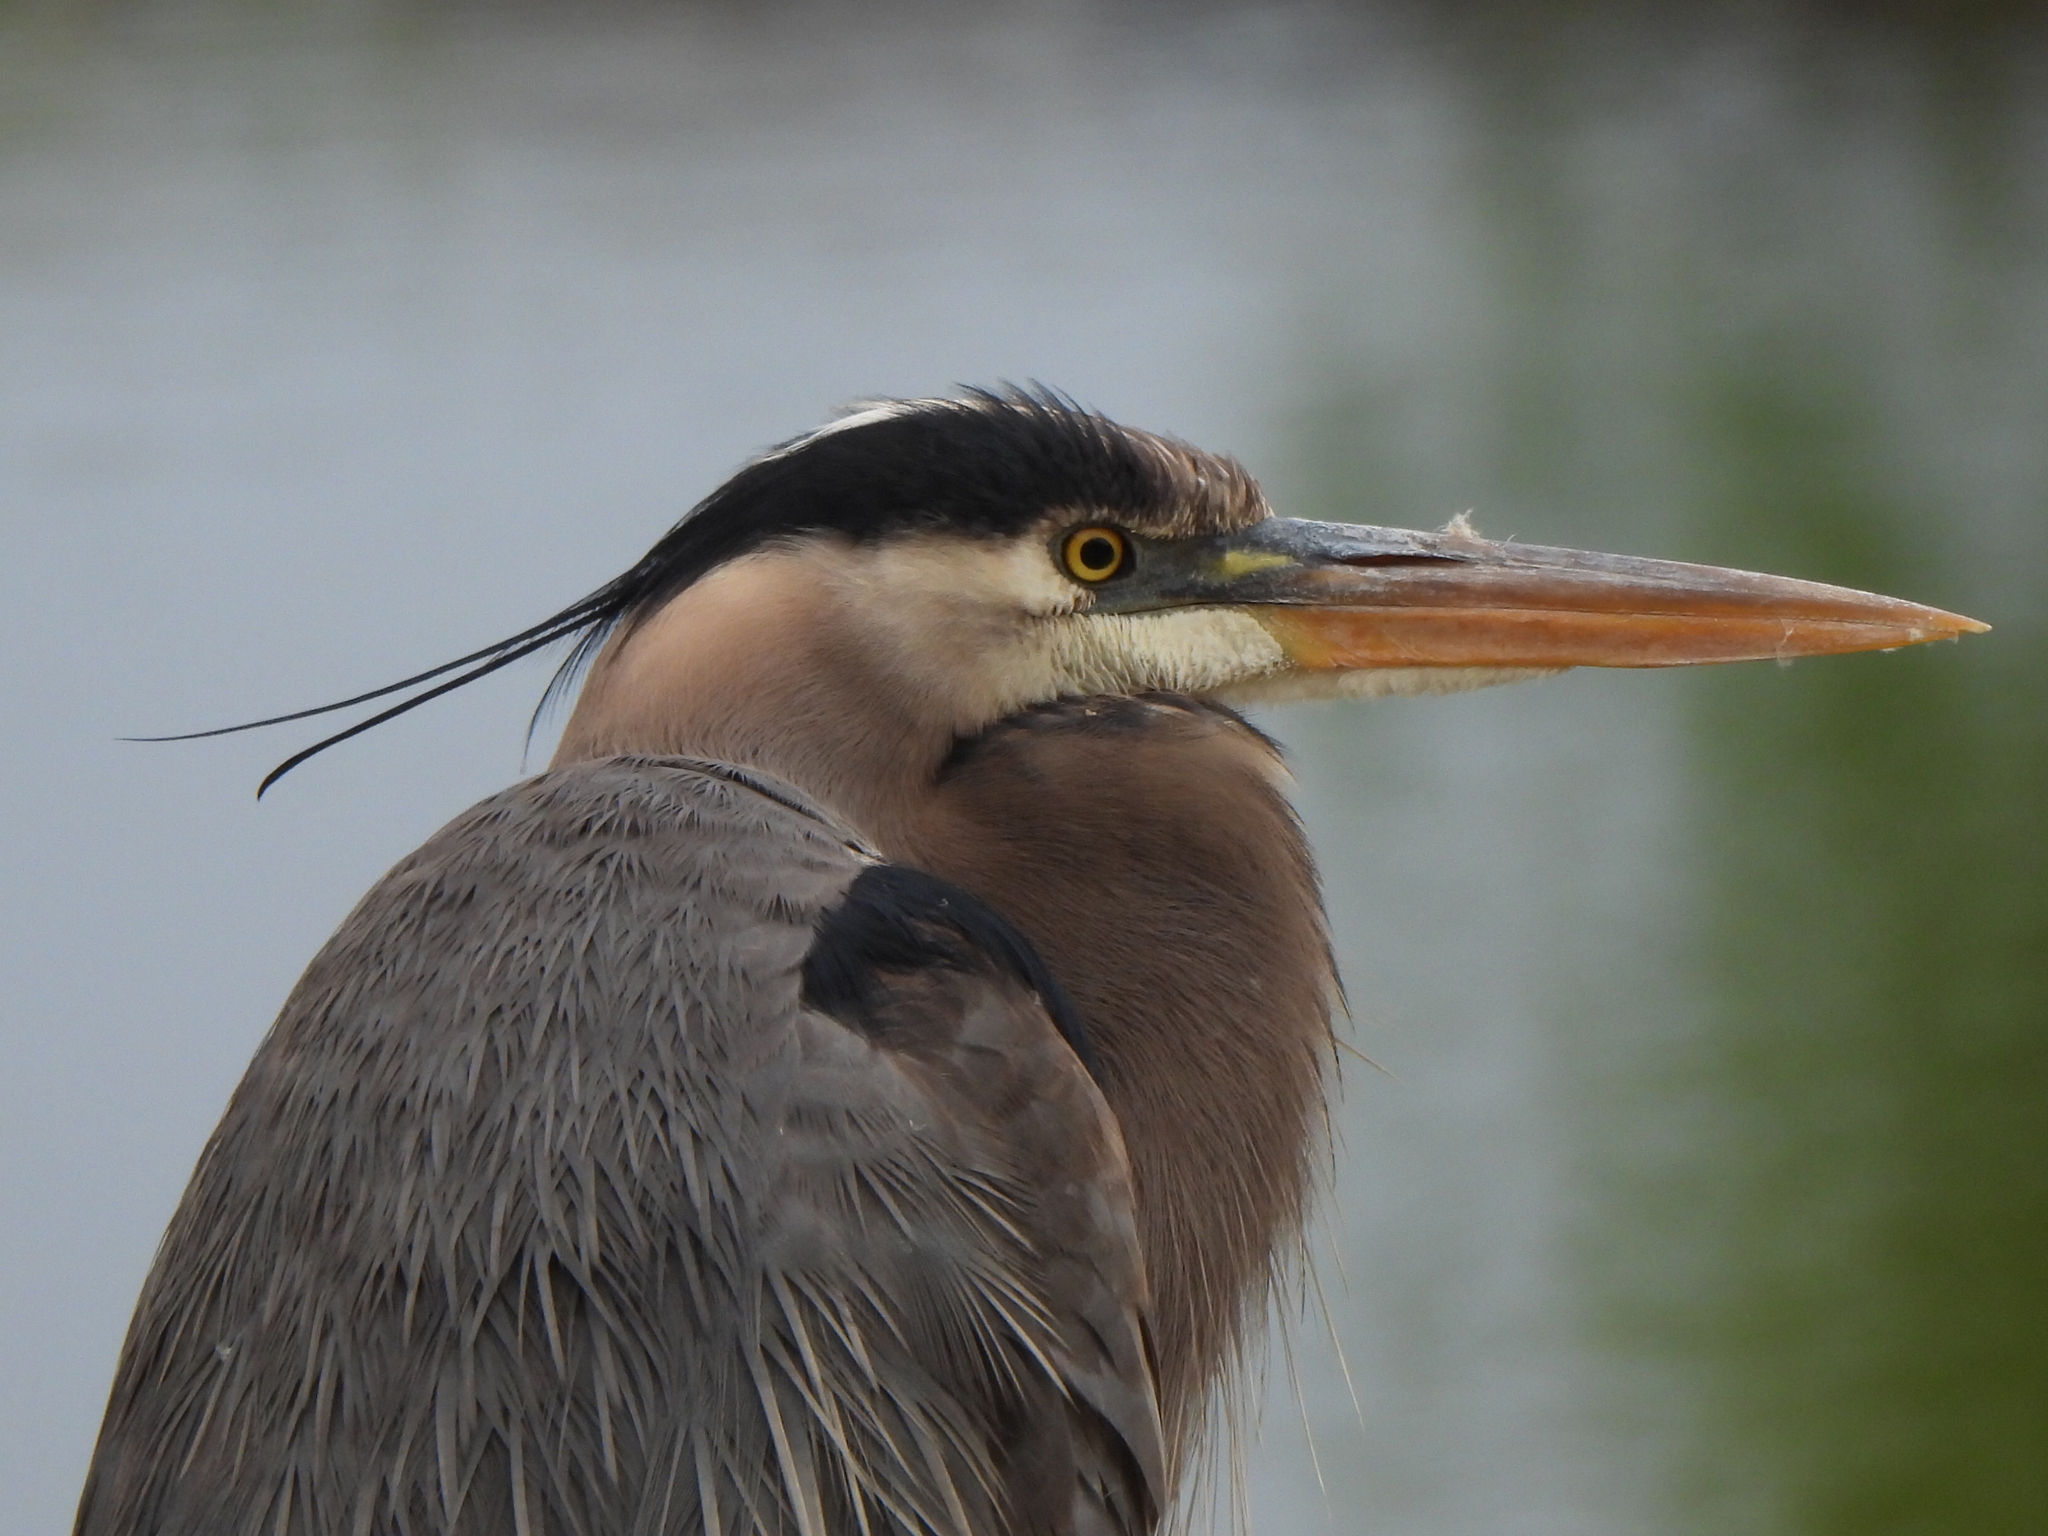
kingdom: Animalia
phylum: Chordata
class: Aves
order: Pelecaniformes
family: Ardeidae
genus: Ardea
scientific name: Ardea herodias
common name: Great blue heron
